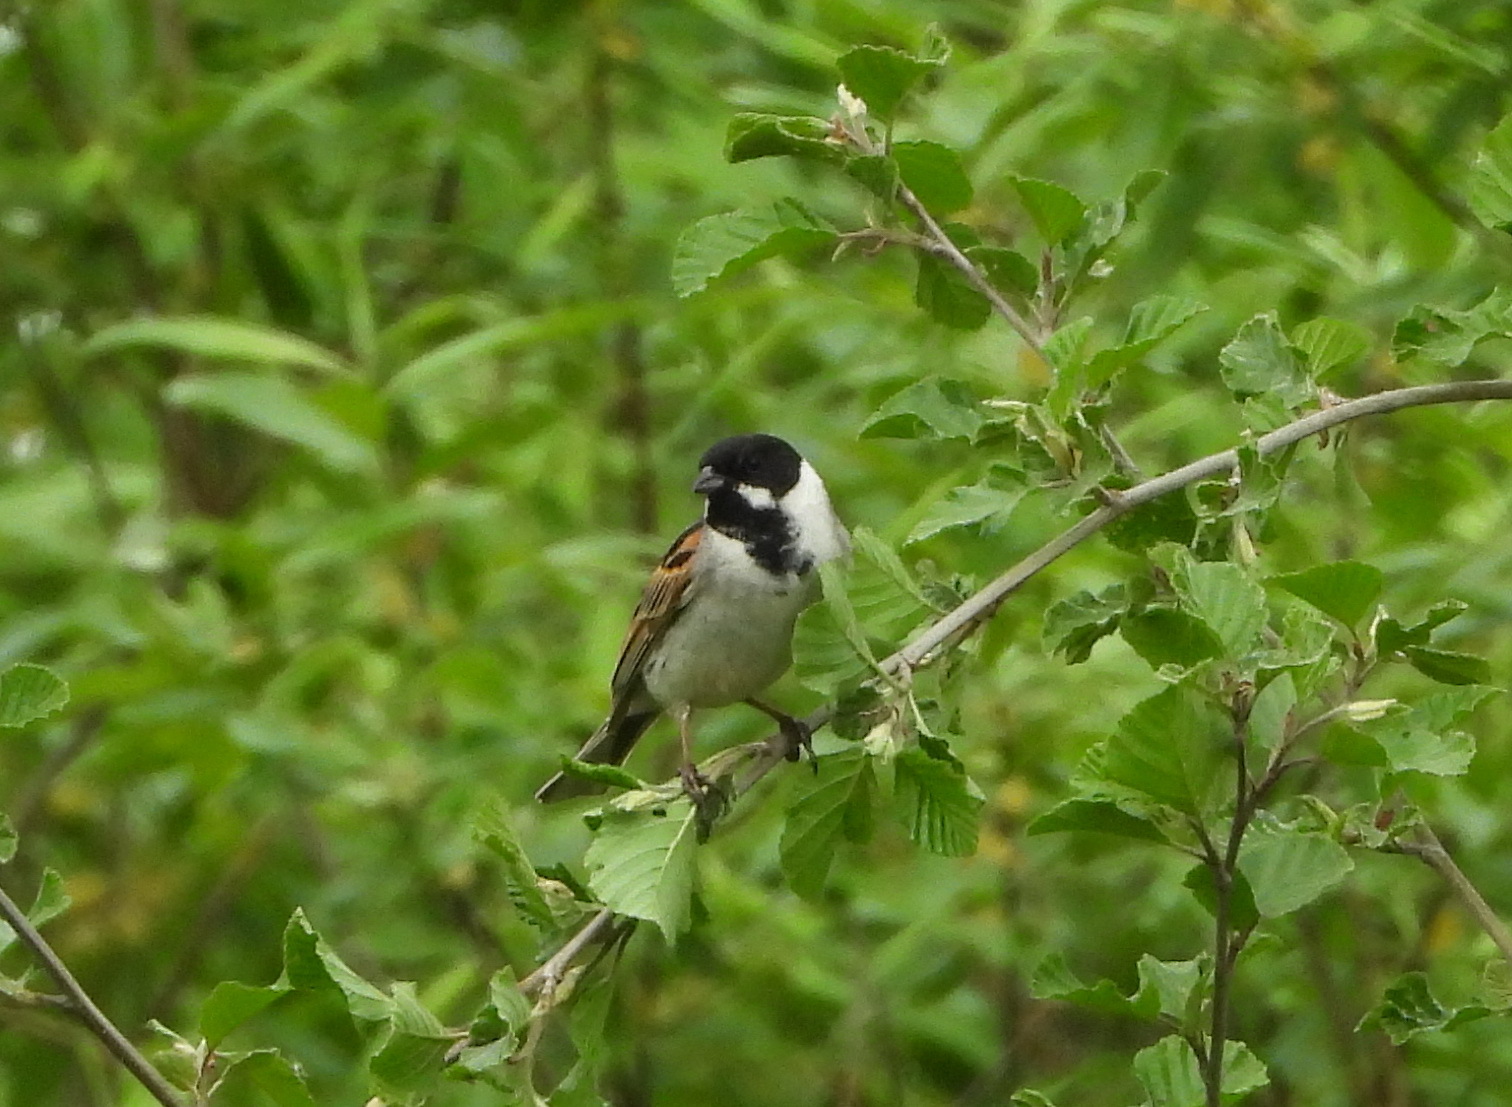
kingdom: Animalia
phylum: Chordata
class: Aves
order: Passeriformes
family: Emberizidae
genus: Emberiza
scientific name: Emberiza schoeniclus
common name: Reed bunting
